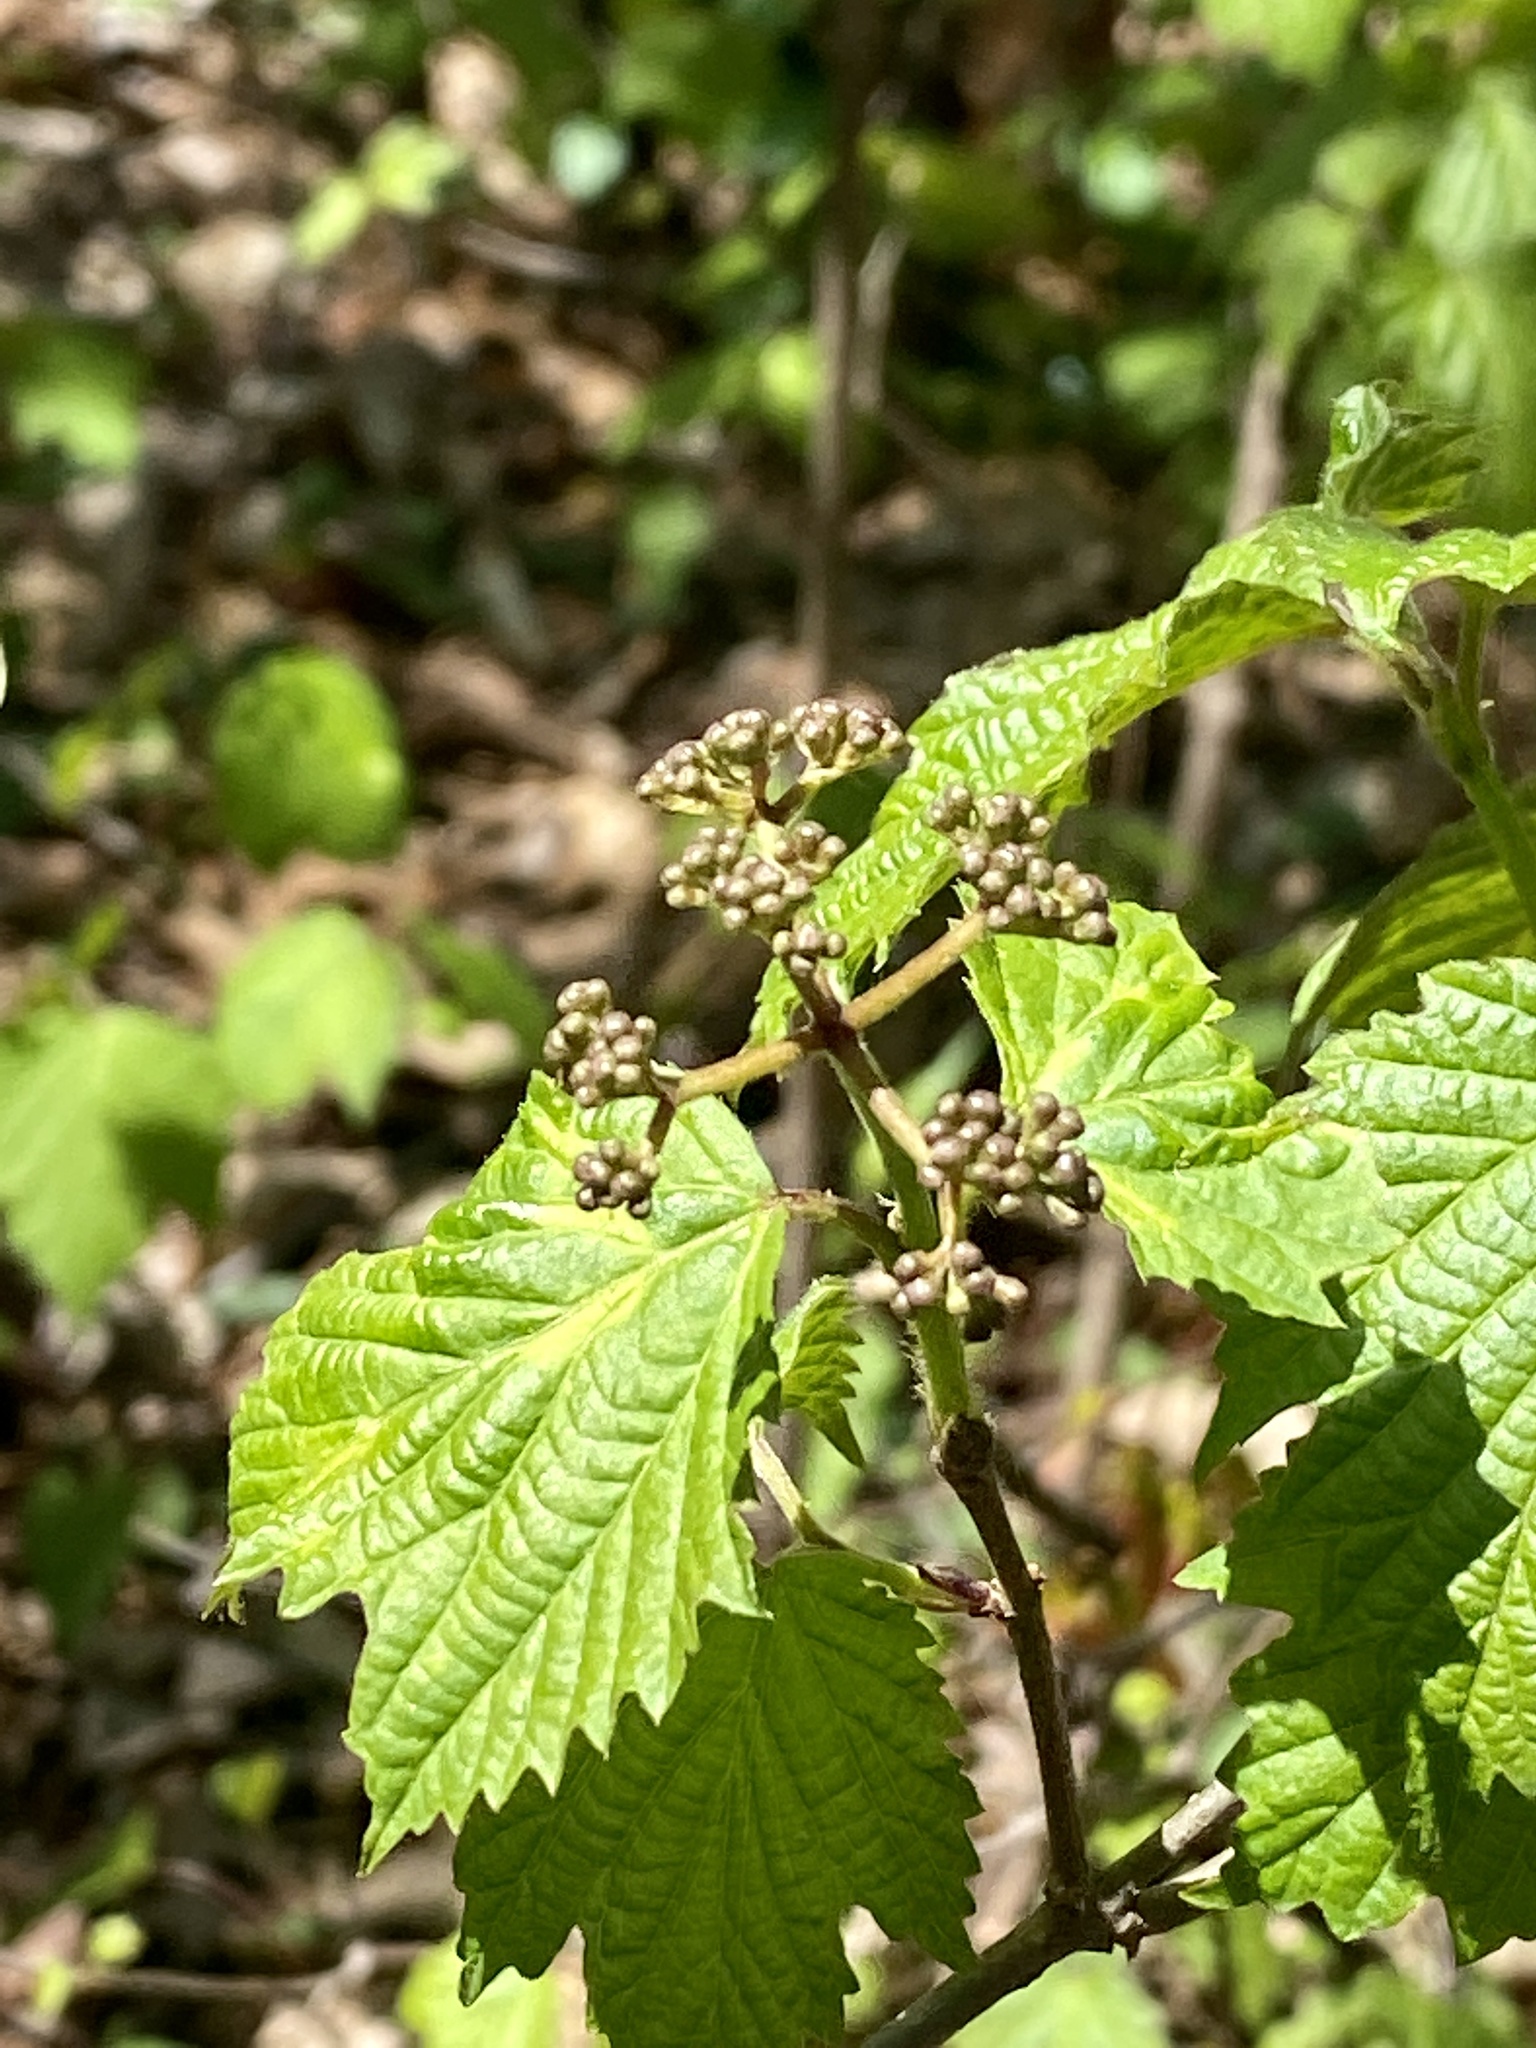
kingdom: Plantae
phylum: Tracheophyta
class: Magnoliopsida
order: Dipsacales
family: Viburnaceae
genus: Viburnum
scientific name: Viburnum acerifolium
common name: Dockmackie
